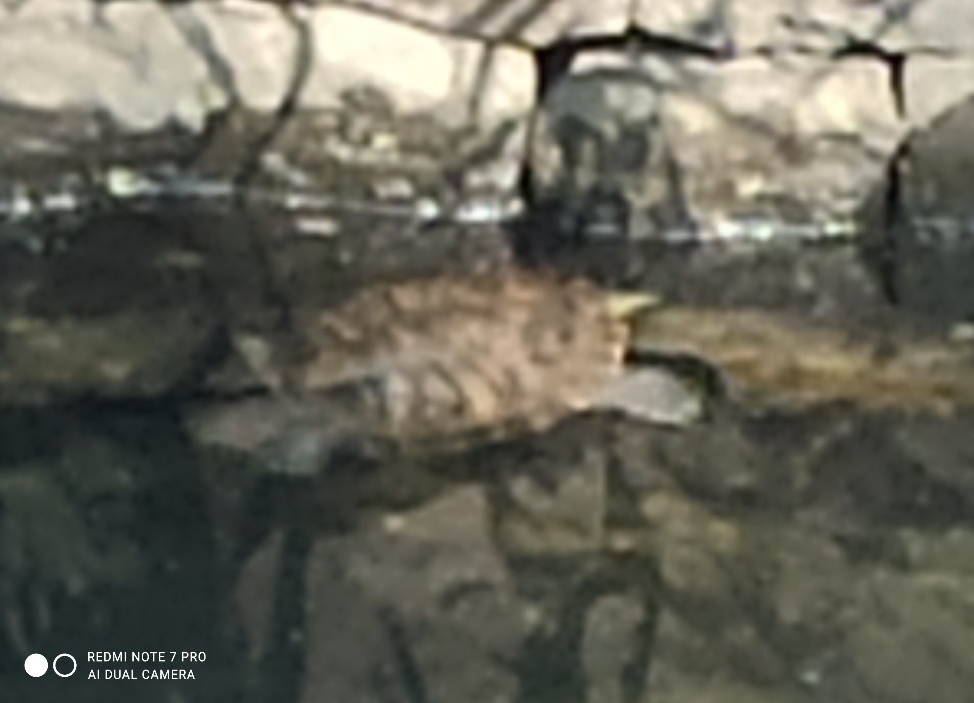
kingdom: Animalia
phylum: Chordata
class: Testudines
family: Emydidae
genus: Trachemys
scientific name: Trachemys scripta
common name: Slider
